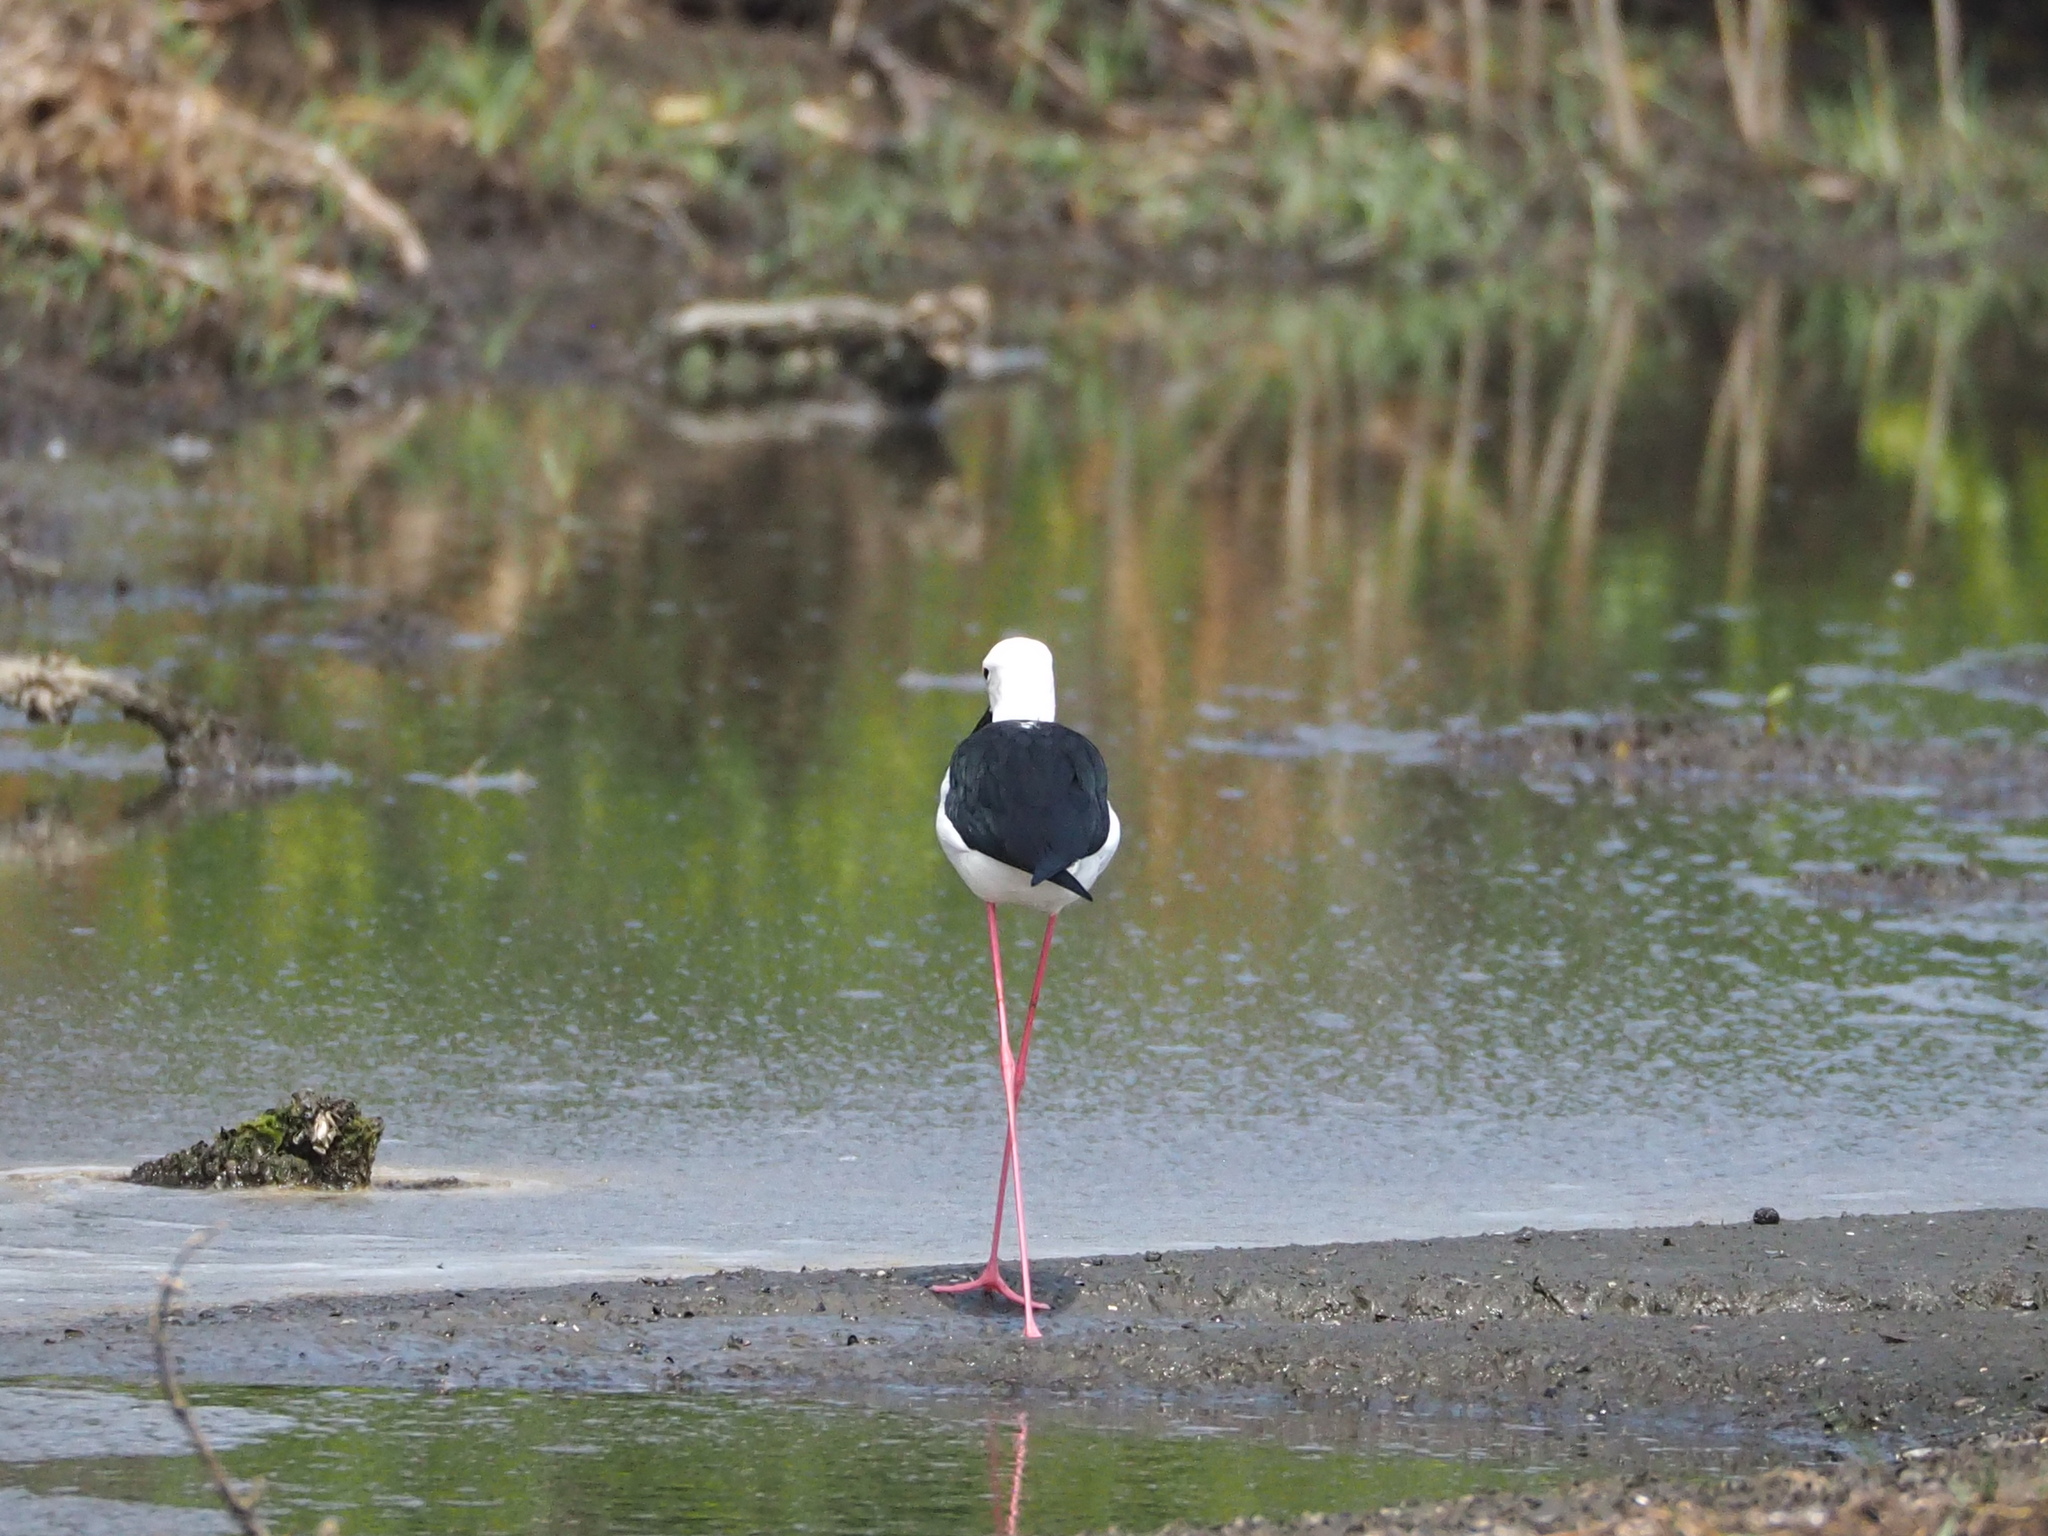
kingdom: Animalia
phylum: Chordata
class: Aves
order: Charadriiformes
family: Recurvirostridae
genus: Himantopus
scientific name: Himantopus himantopus
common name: Black-winged stilt
